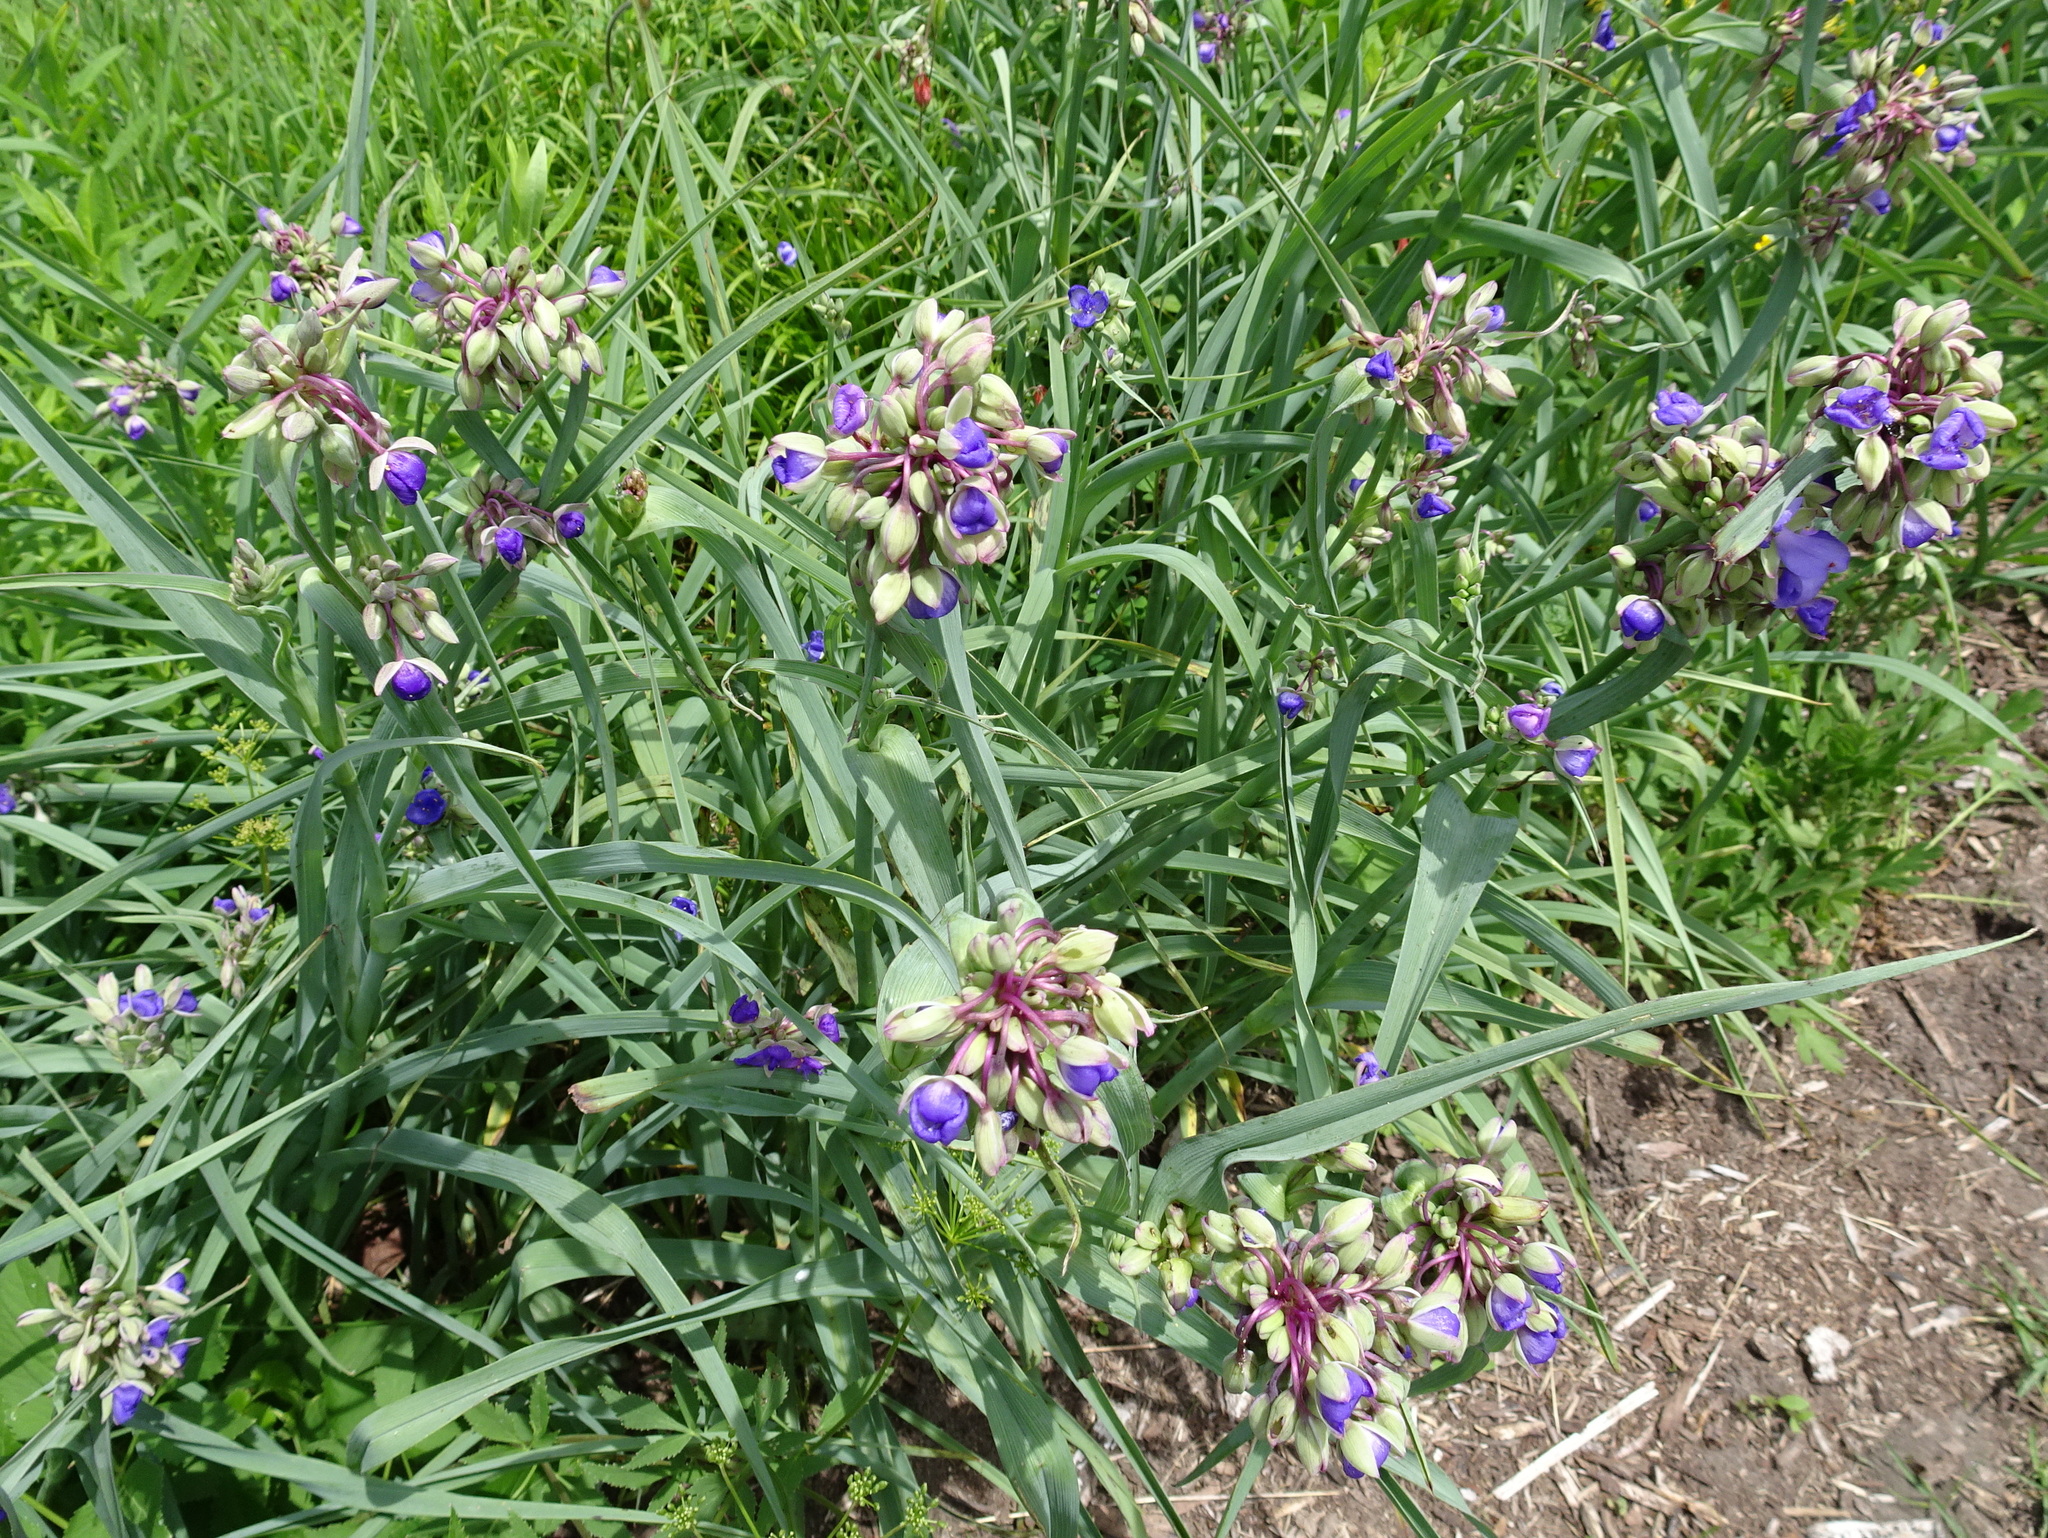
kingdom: Plantae
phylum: Tracheophyta
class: Liliopsida
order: Commelinales
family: Commelinaceae
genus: Tradescantia
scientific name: Tradescantia ohiensis
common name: Ohio spiderwort
